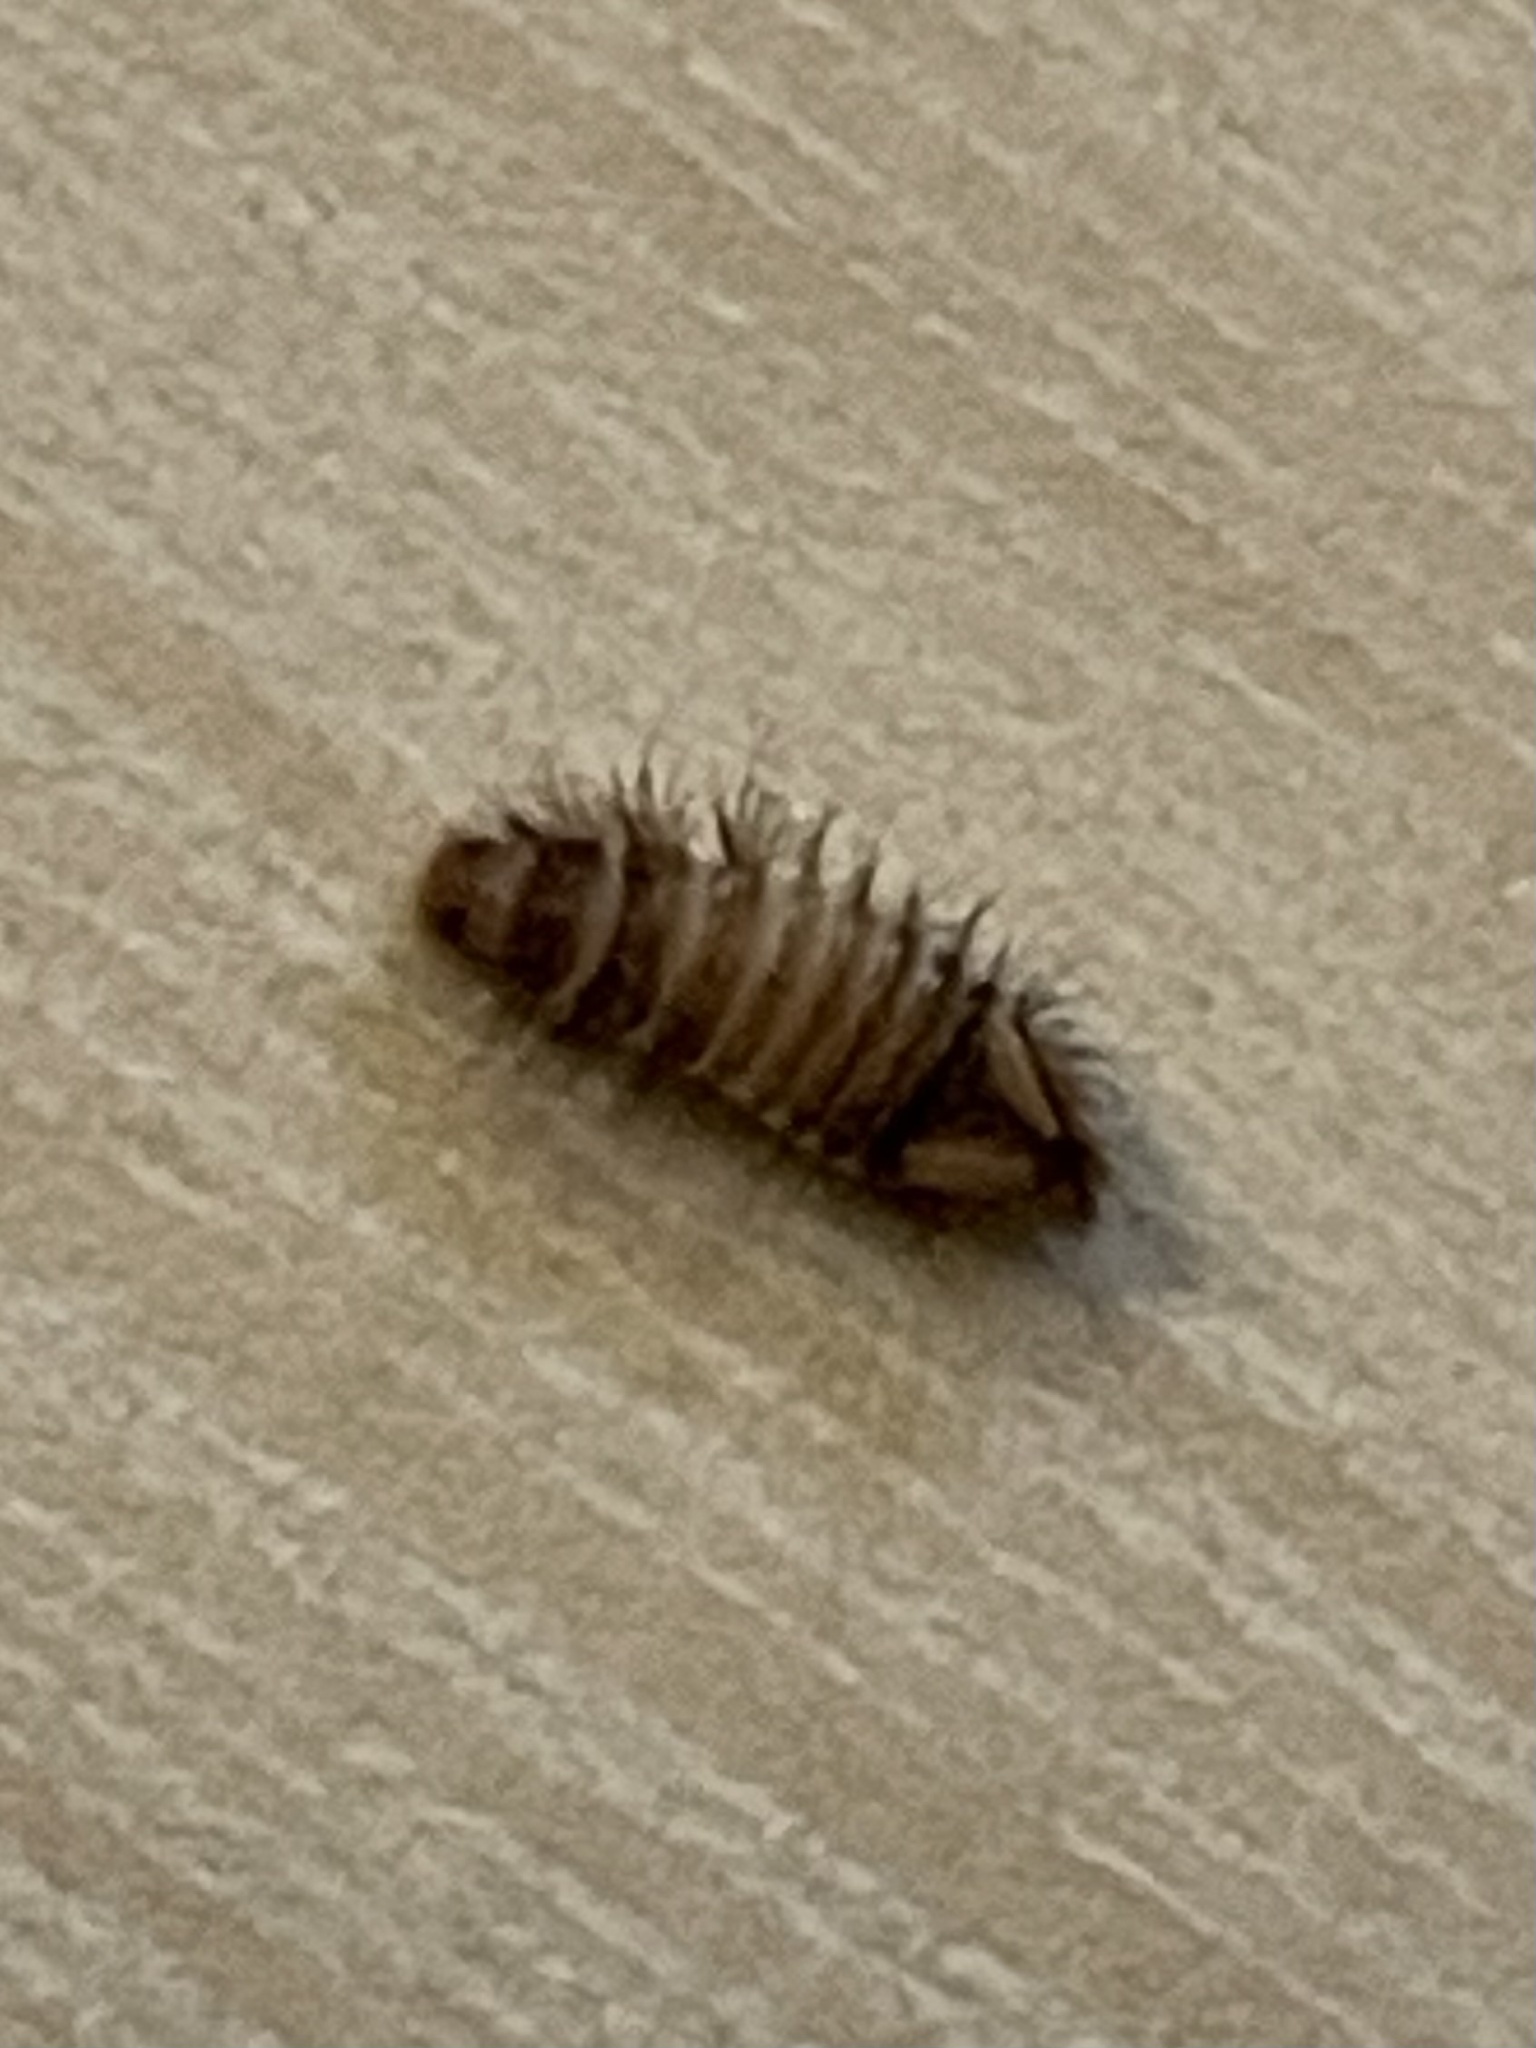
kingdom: Animalia
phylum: Arthropoda
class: Insecta
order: Coleoptera
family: Dermestidae
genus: Anthrenus
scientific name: Anthrenus verbasci
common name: Varied carpet beetle
